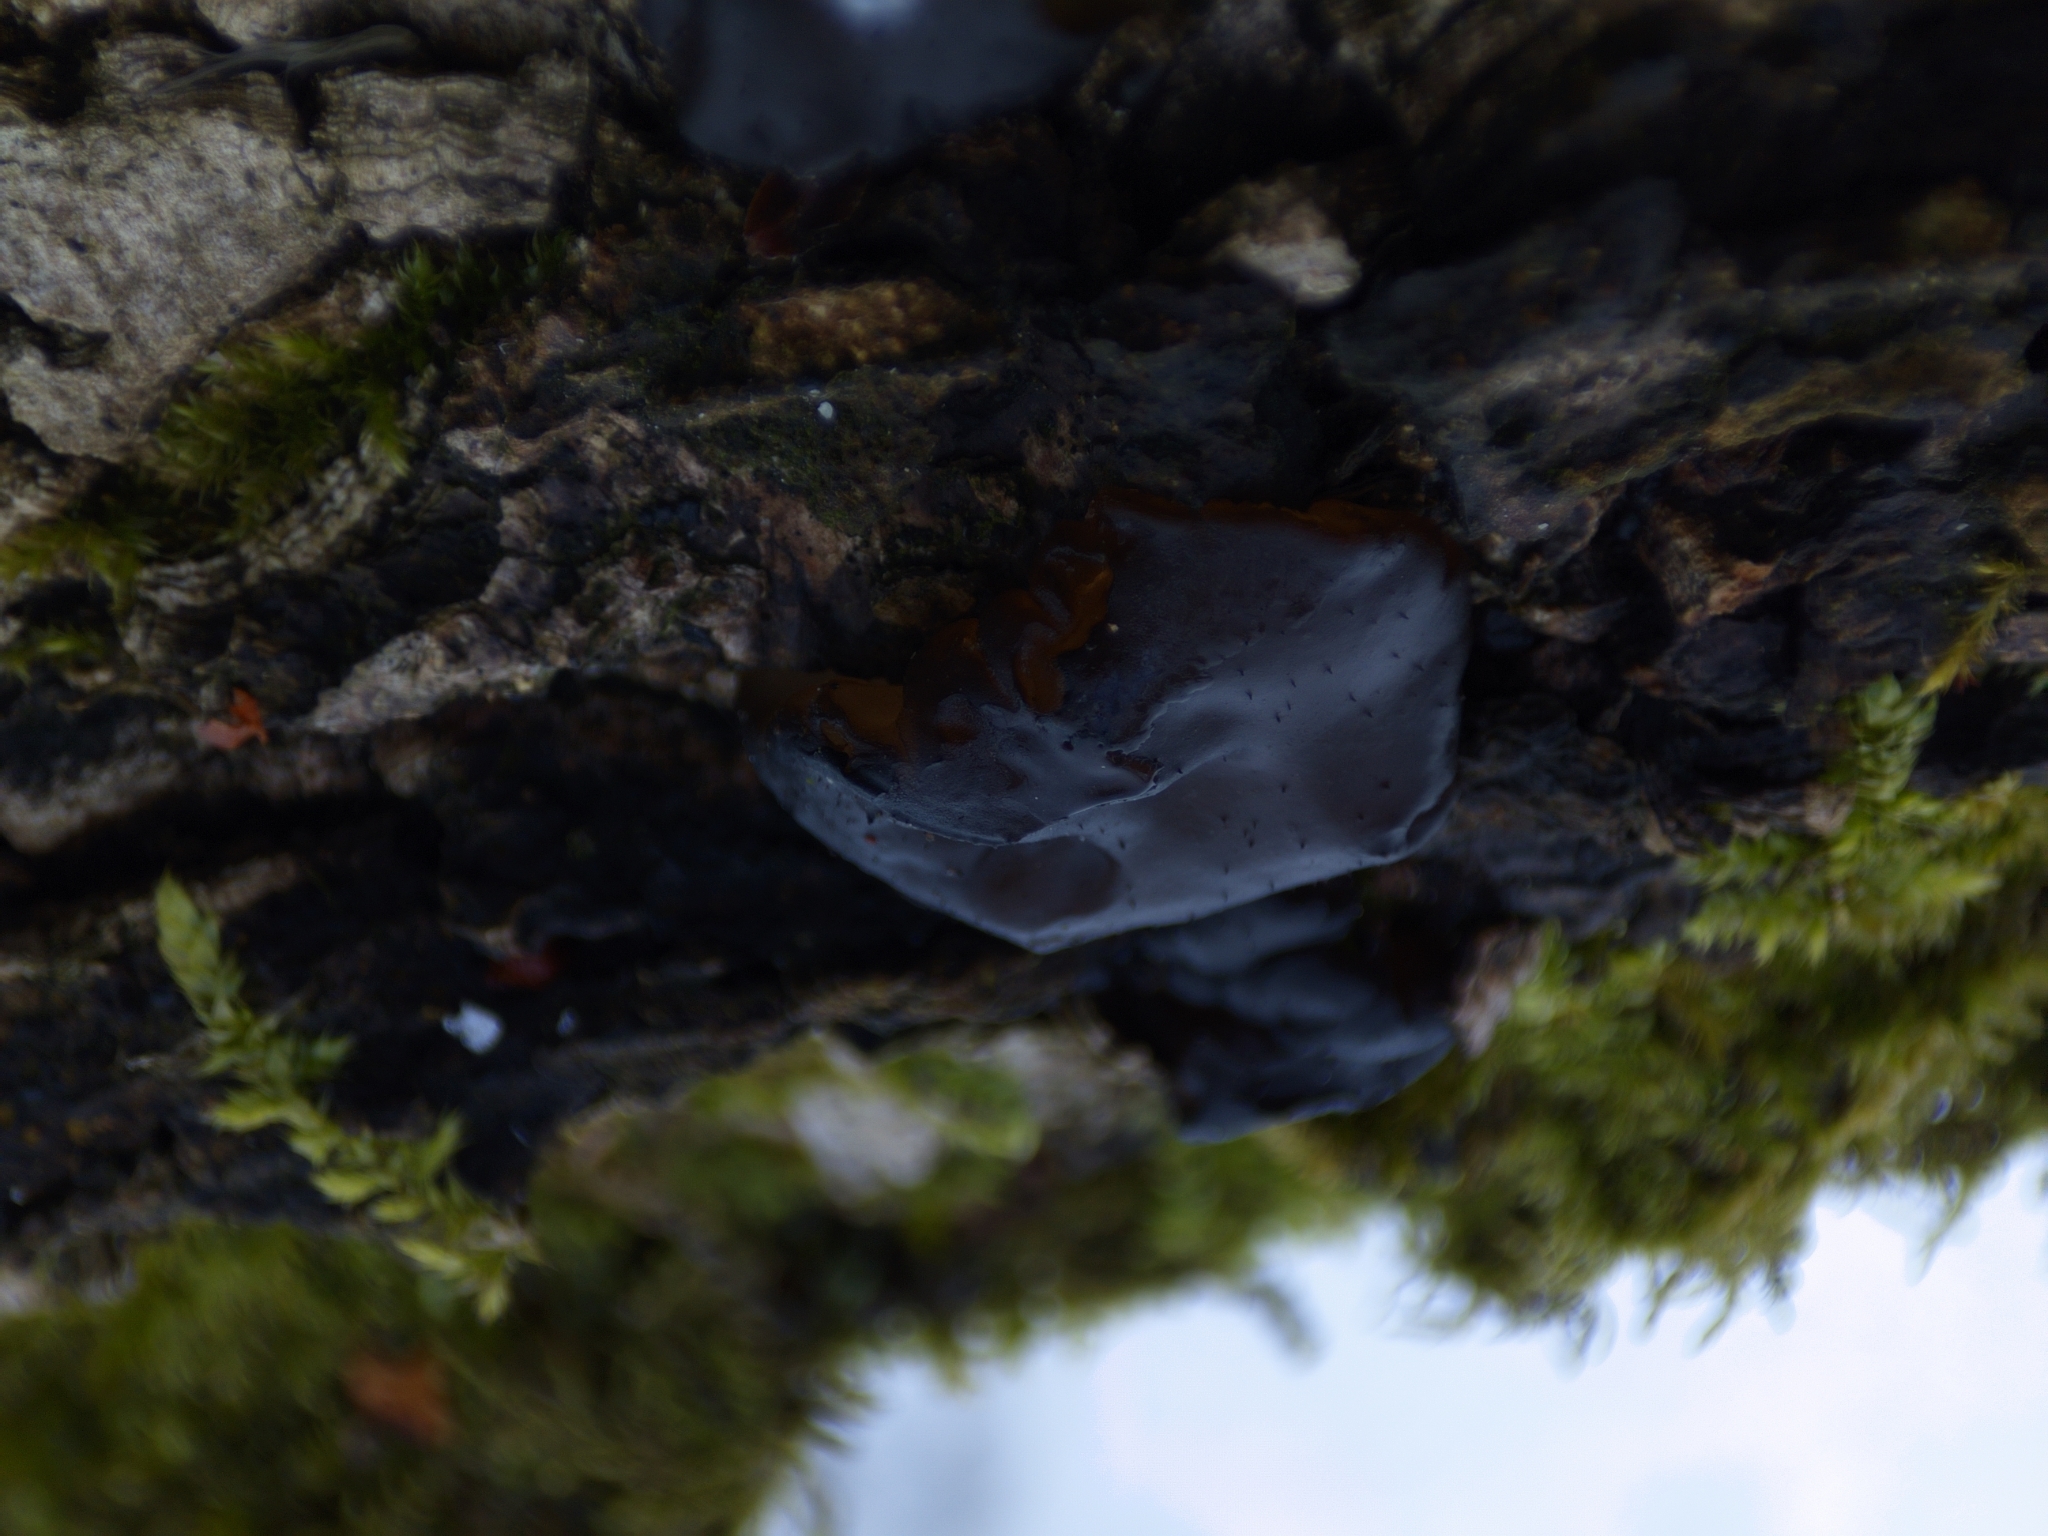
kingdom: Fungi
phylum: Basidiomycota
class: Agaricomycetes
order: Auriculariales
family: Auriculariaceae
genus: Exidia
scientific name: Exidia glandulosa
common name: Witches' butter
